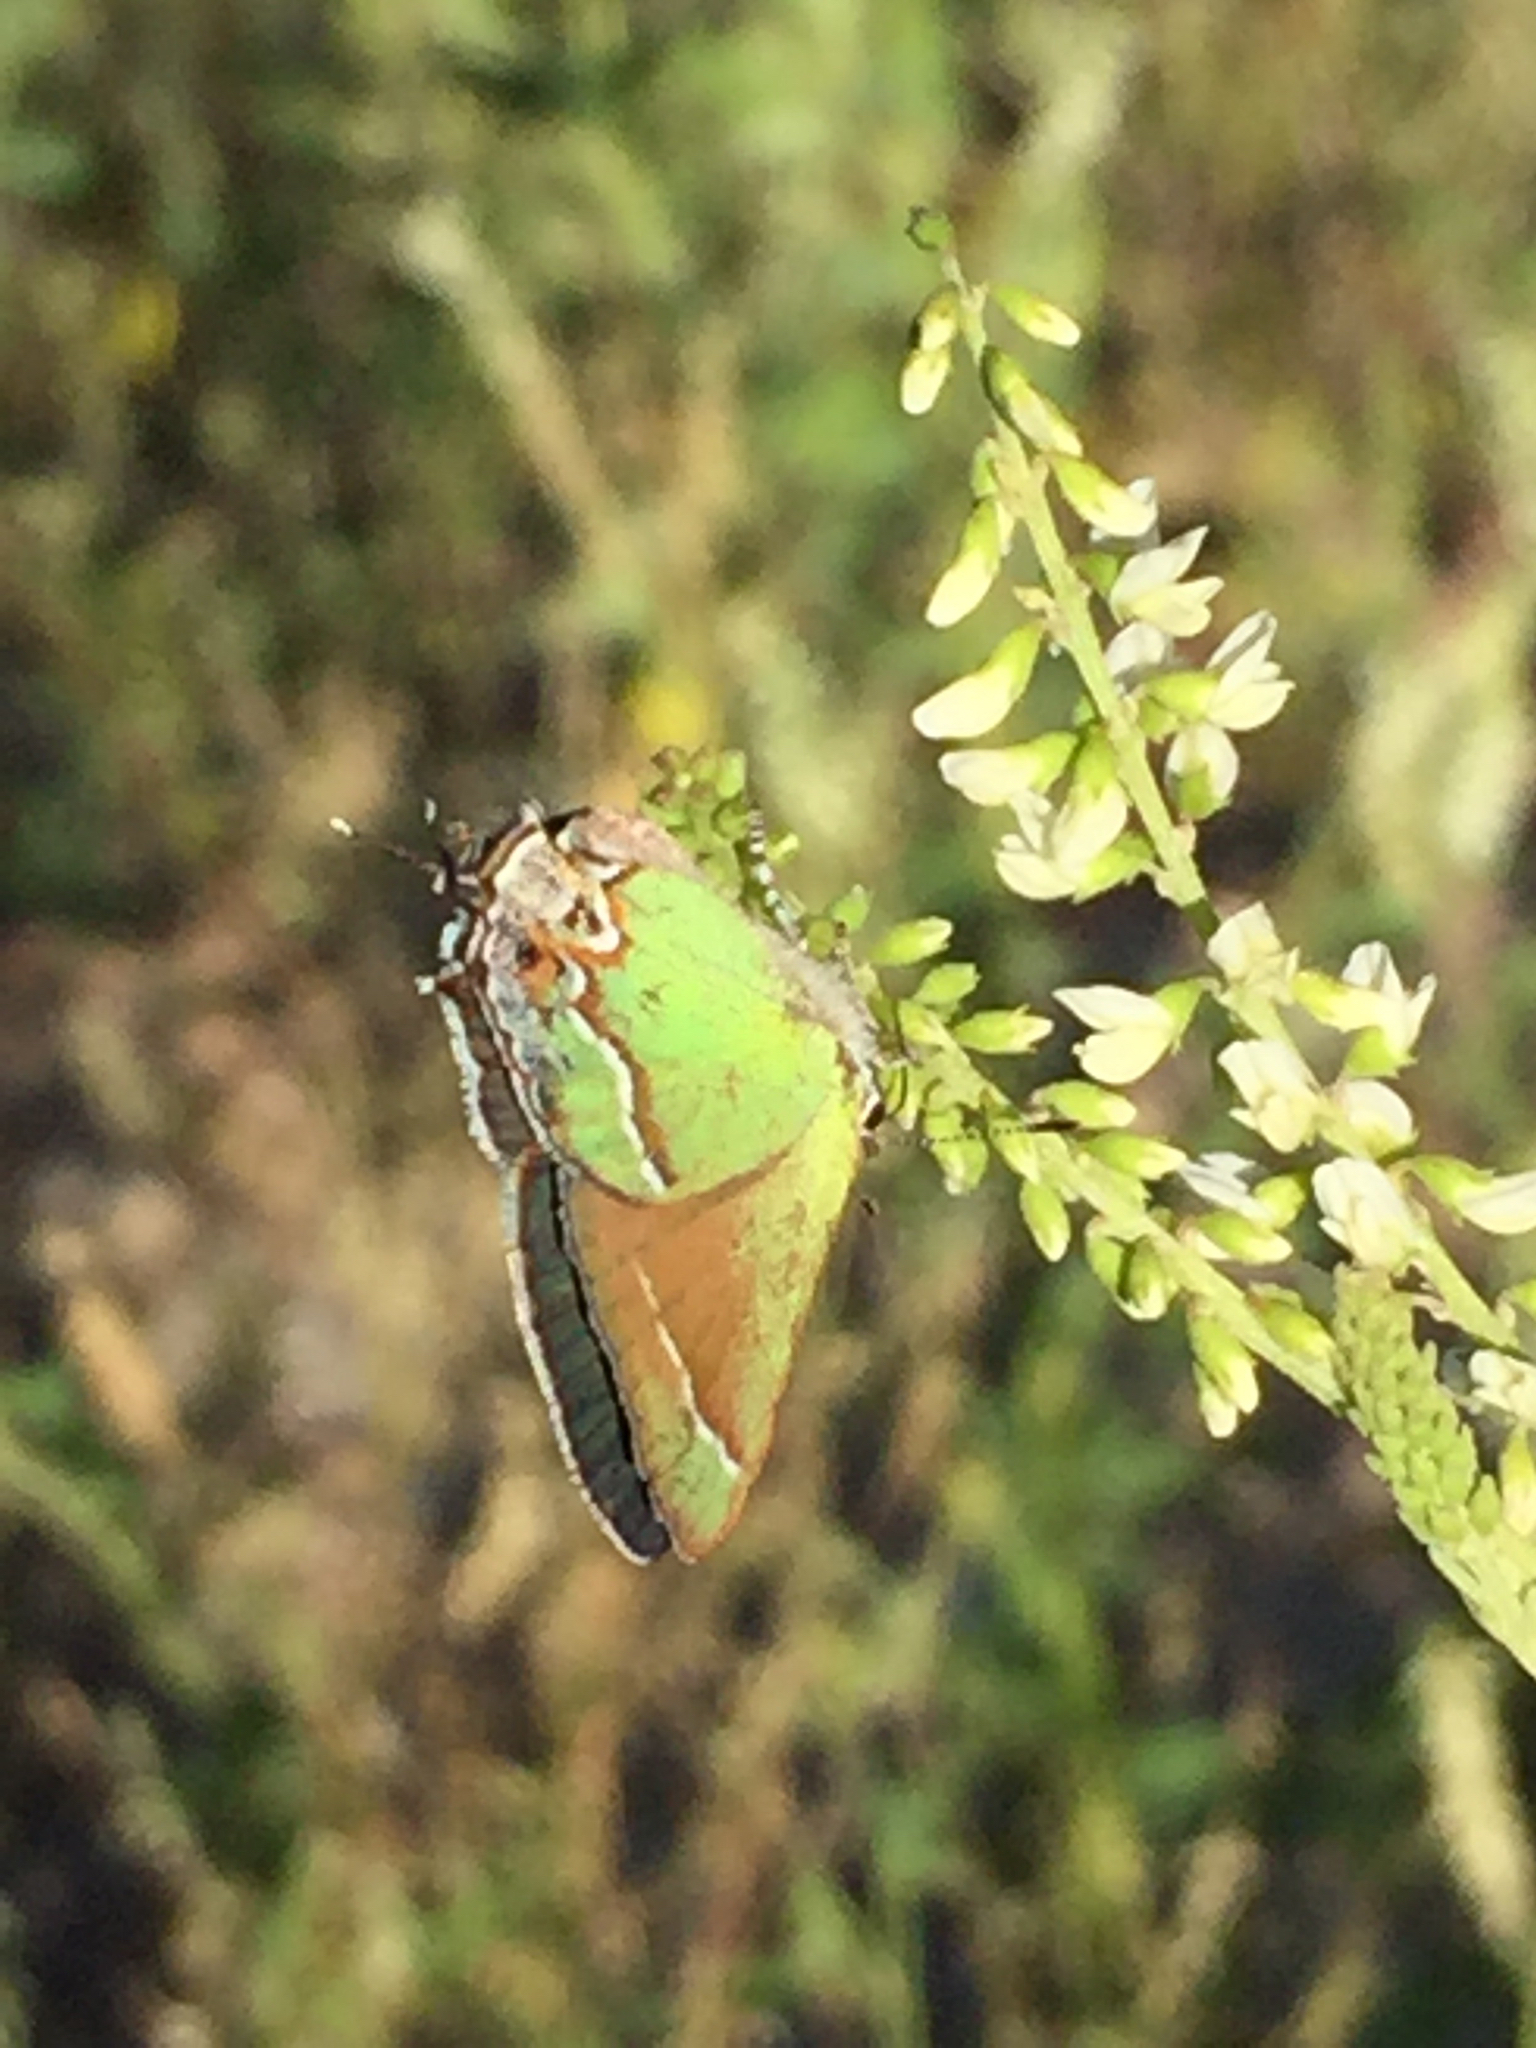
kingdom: Animalia
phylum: Arthropoda
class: Insecta
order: Lepidoptera
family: Lycaenidae
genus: Mitoura
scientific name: Mitoura siva
